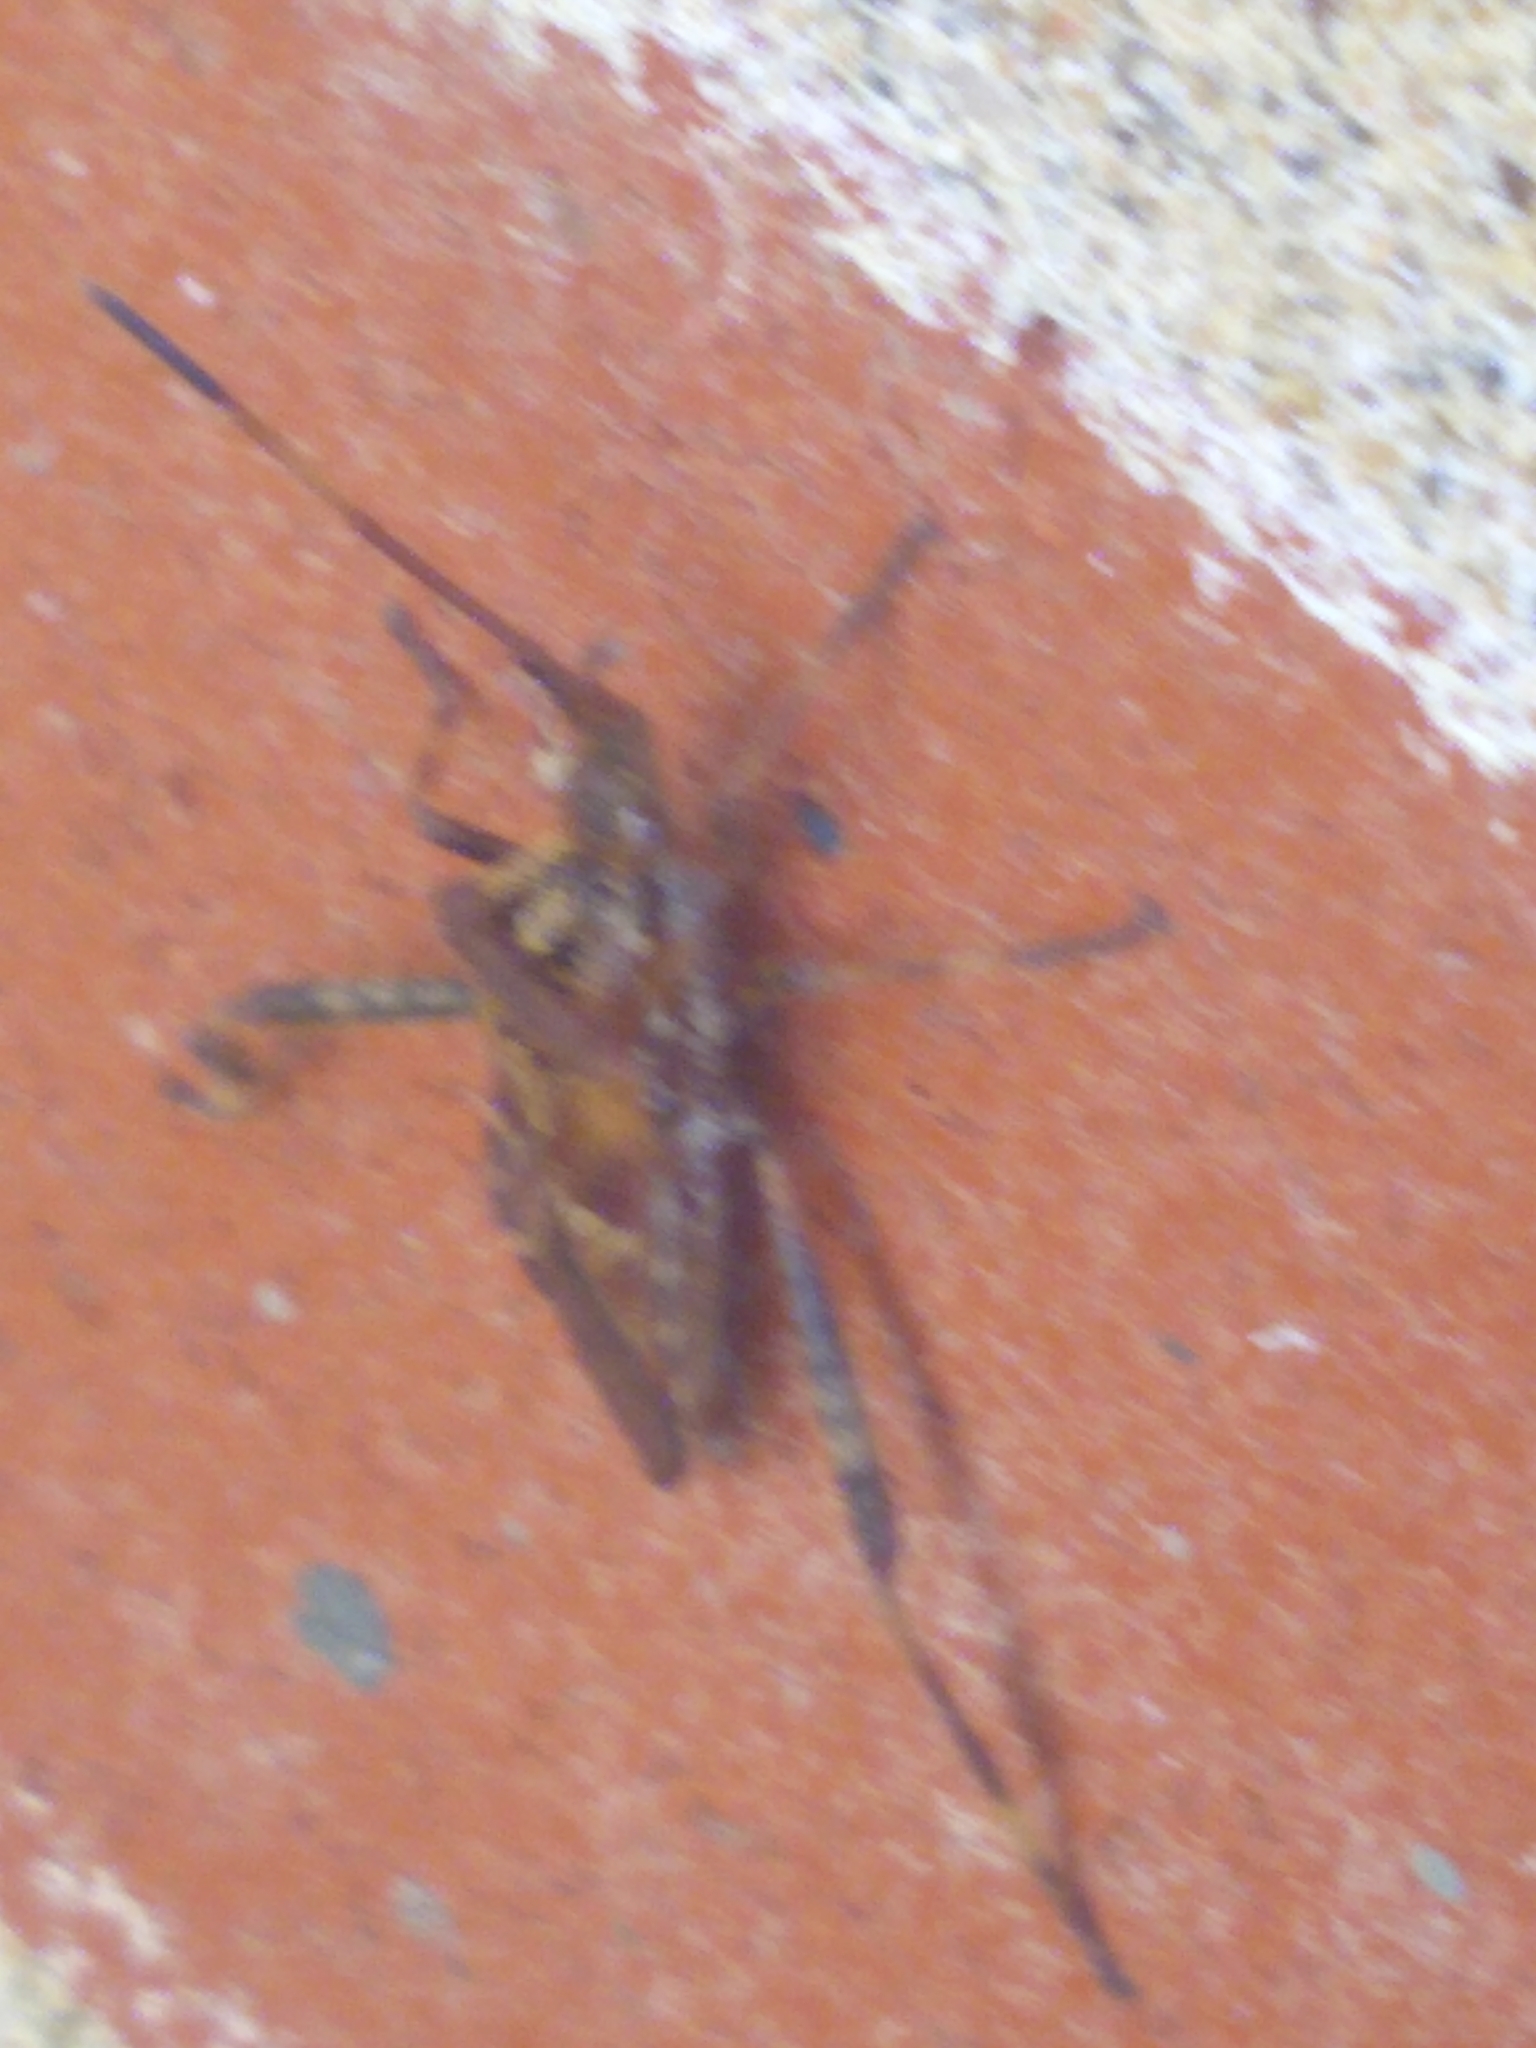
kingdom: Animalia
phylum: Arthropoda
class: Insecta
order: Hemiptera
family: Coreidae
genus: Leptoglossus
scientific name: Leptoglossus occidentalis
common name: Western conifer-seed bug
